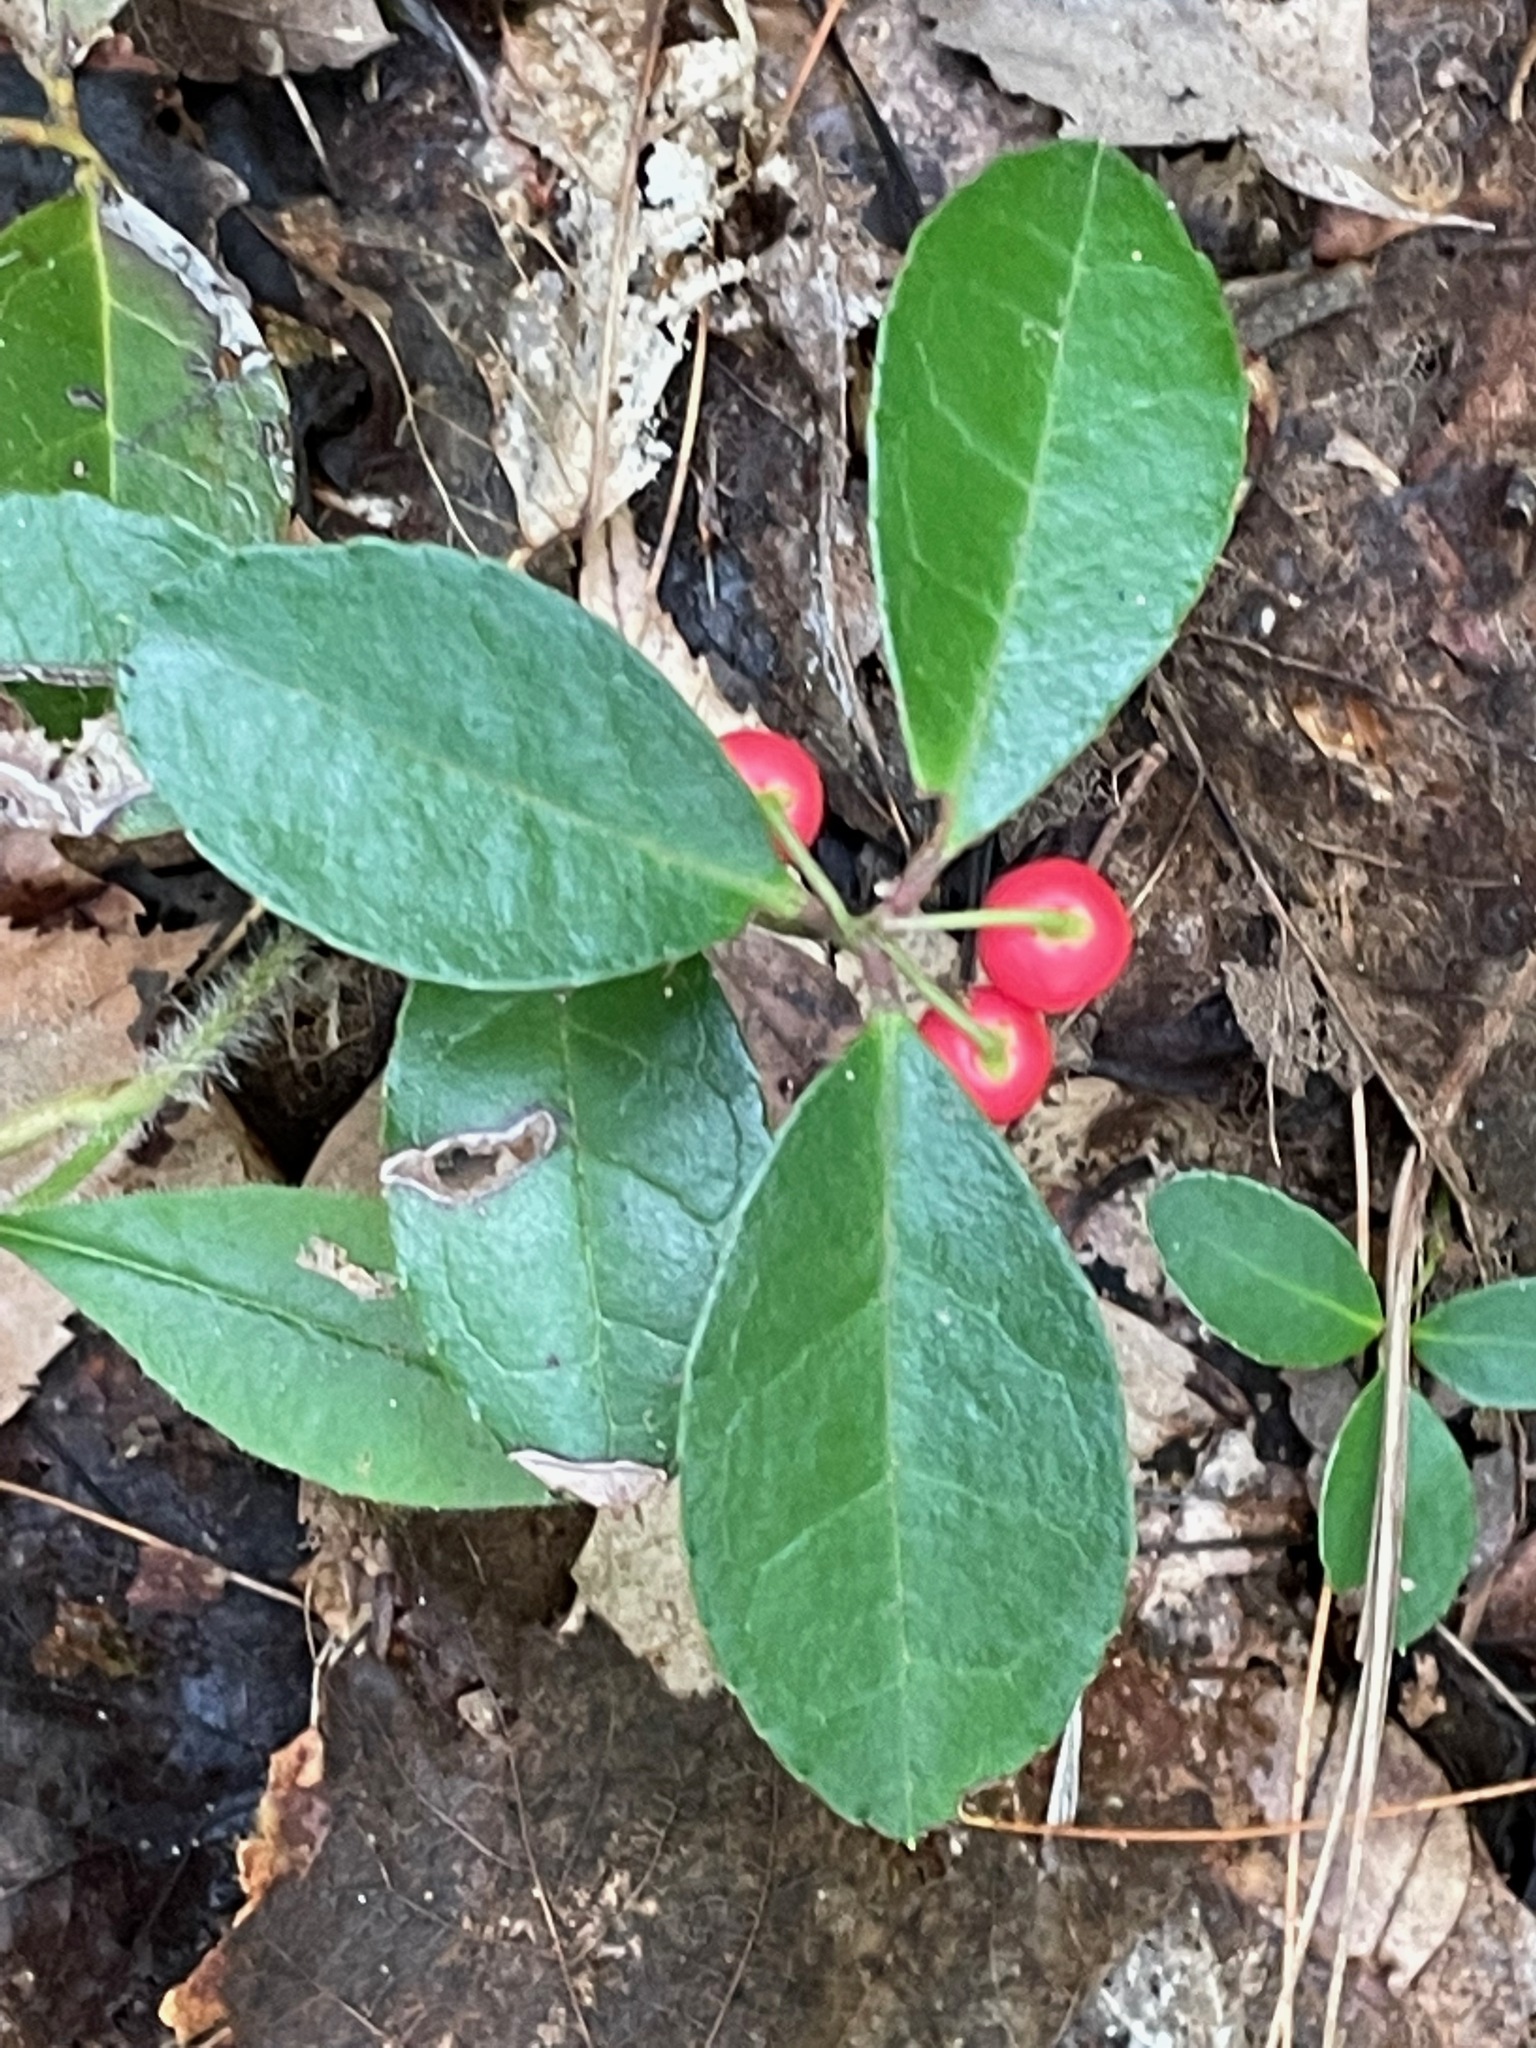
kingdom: Plantae
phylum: Tracheophyta
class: Magnoliopsida
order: Ericales
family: Ericaceae
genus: Gaultheria
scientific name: Gaultheria procumbens
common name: Checkerberry
